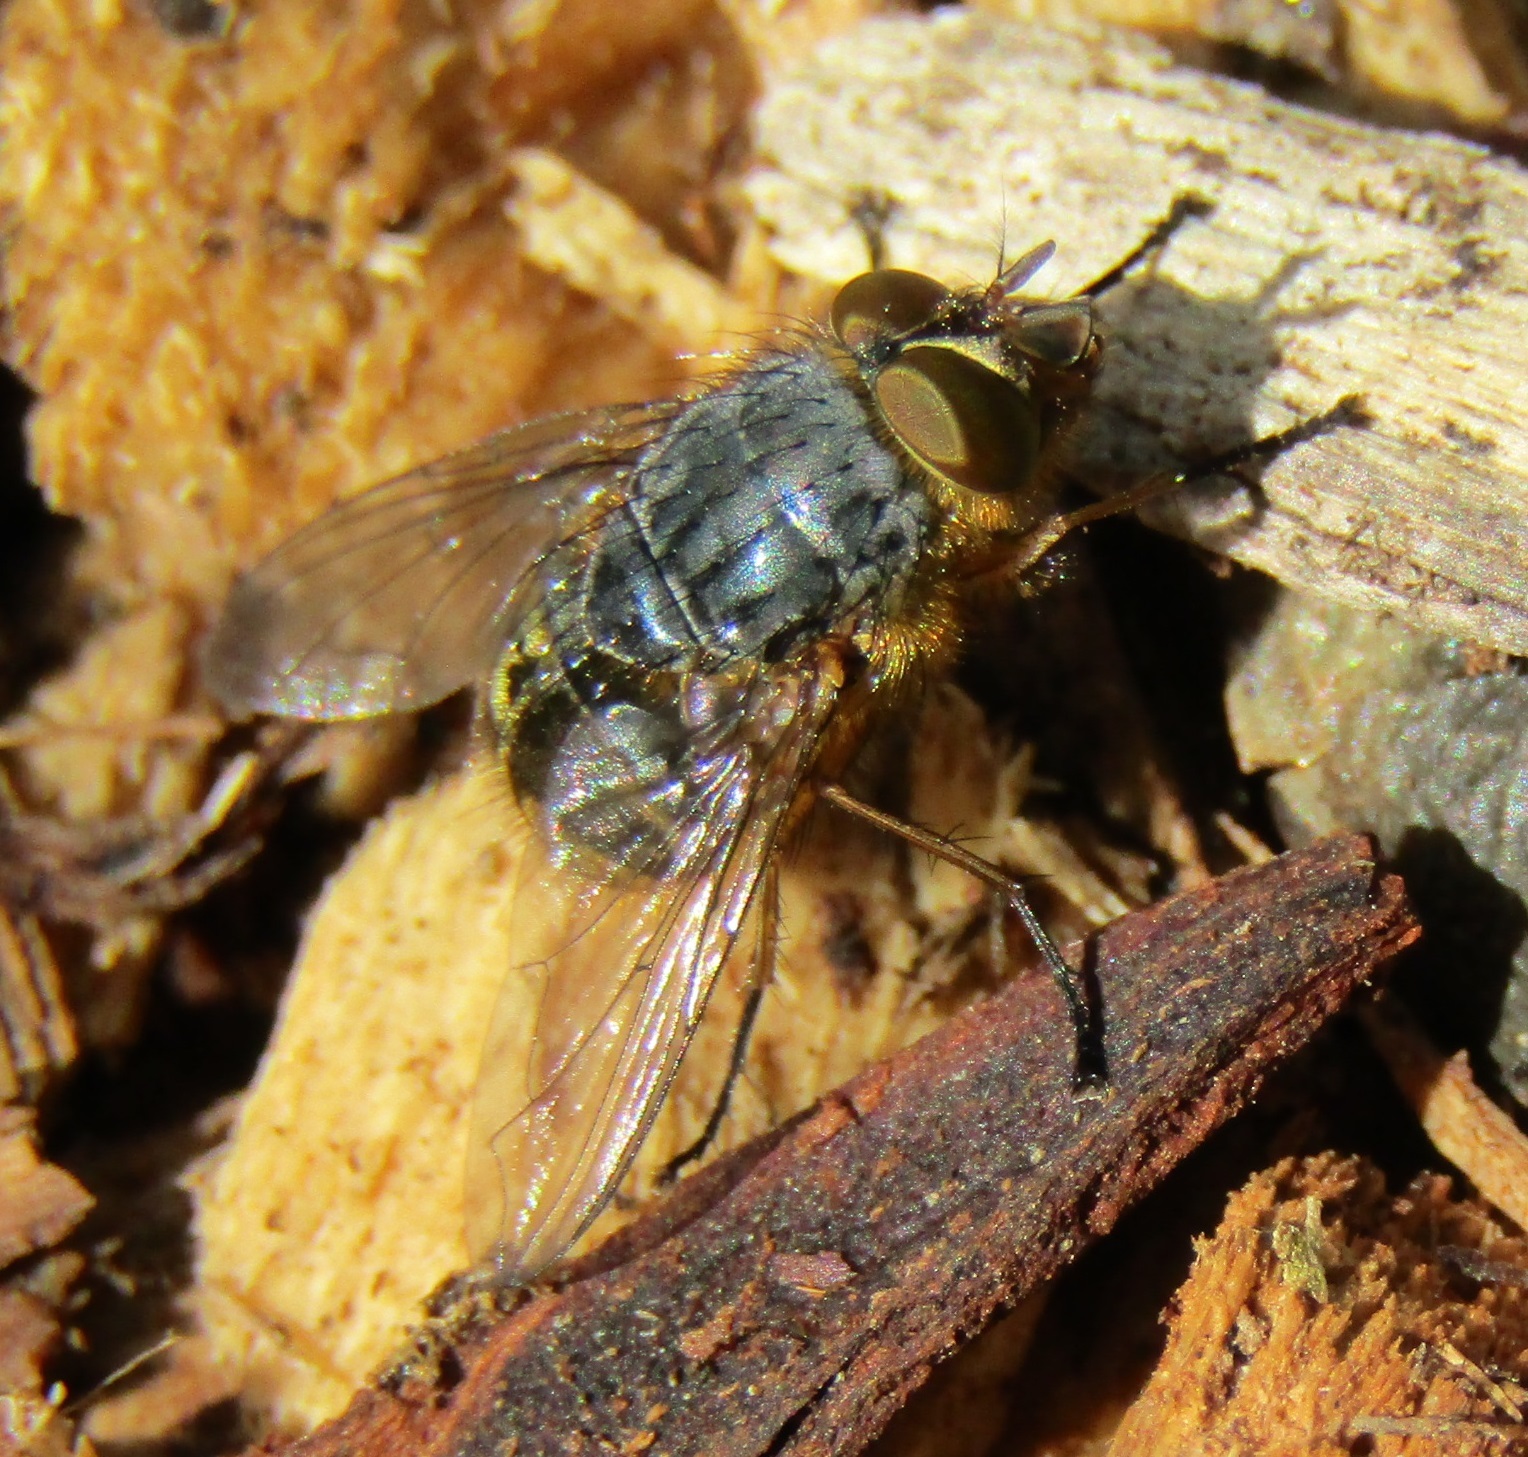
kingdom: Animalia
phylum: Arthropoda
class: Insecta
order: Diptera
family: Calliphoridae
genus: Calliphora
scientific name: Calliphora hilli
